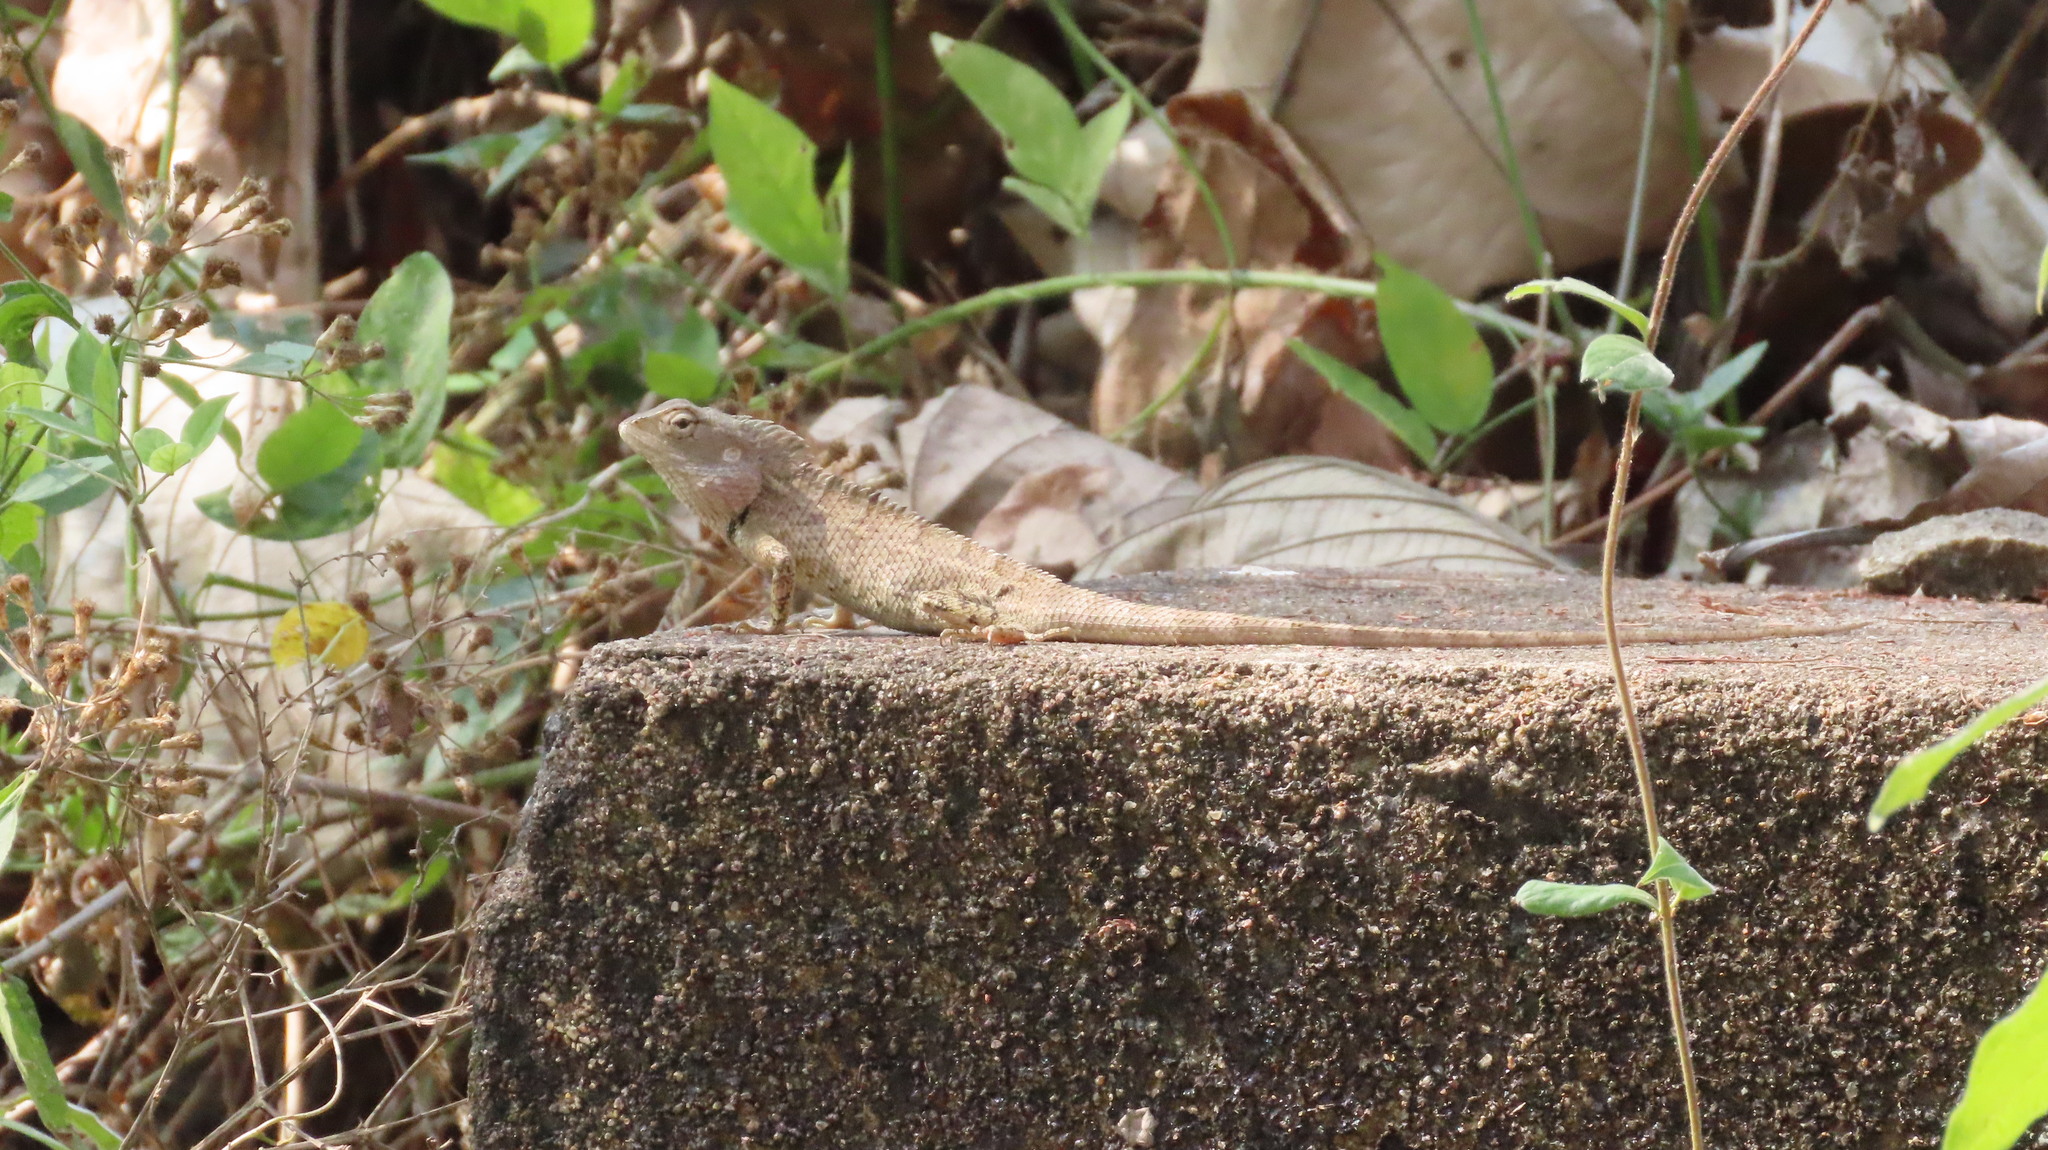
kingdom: Animalia
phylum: Chordata
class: Squamata
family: Agamidae
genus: Calotes
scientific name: Calotes versicolor
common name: Oriental garden lizard
